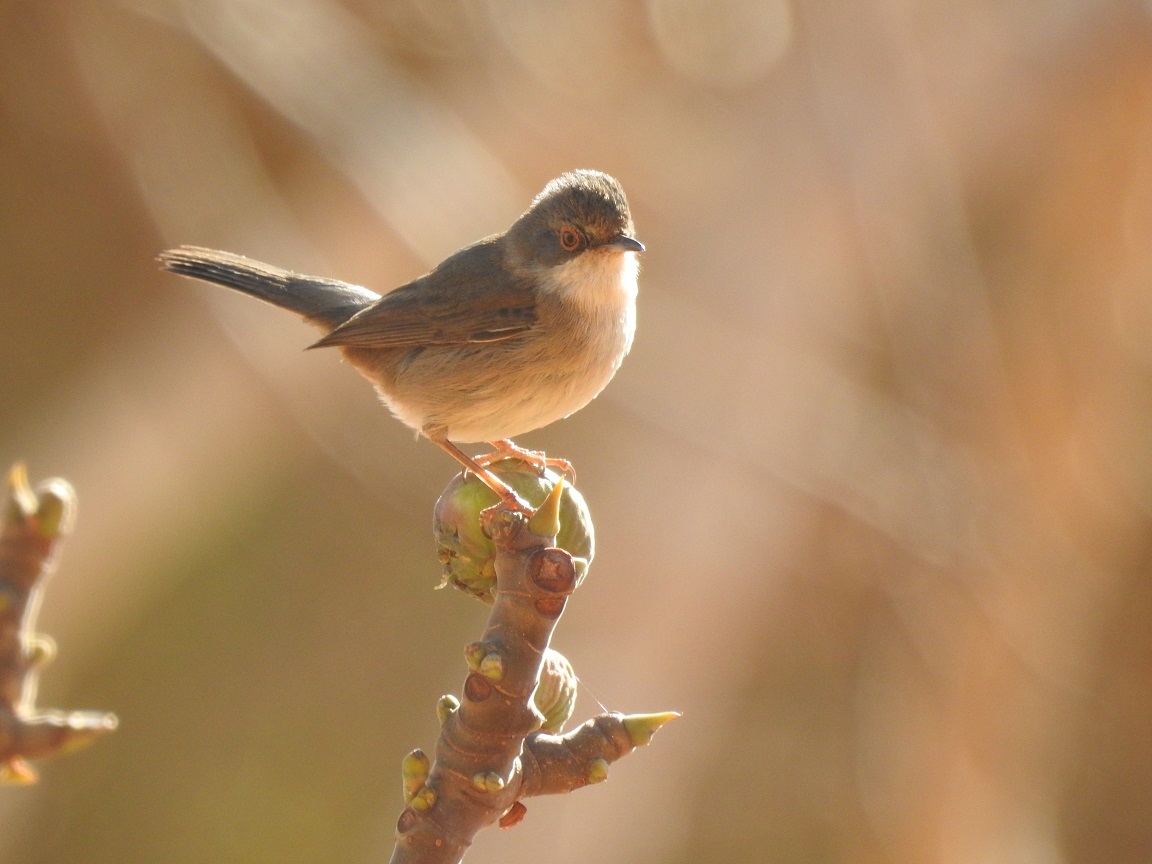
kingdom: Animalia
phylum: Chordata
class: Aves
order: Passeriformes
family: Sylviidae
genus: Curruca
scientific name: Curruca melanocephala
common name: Sardinian warbler
